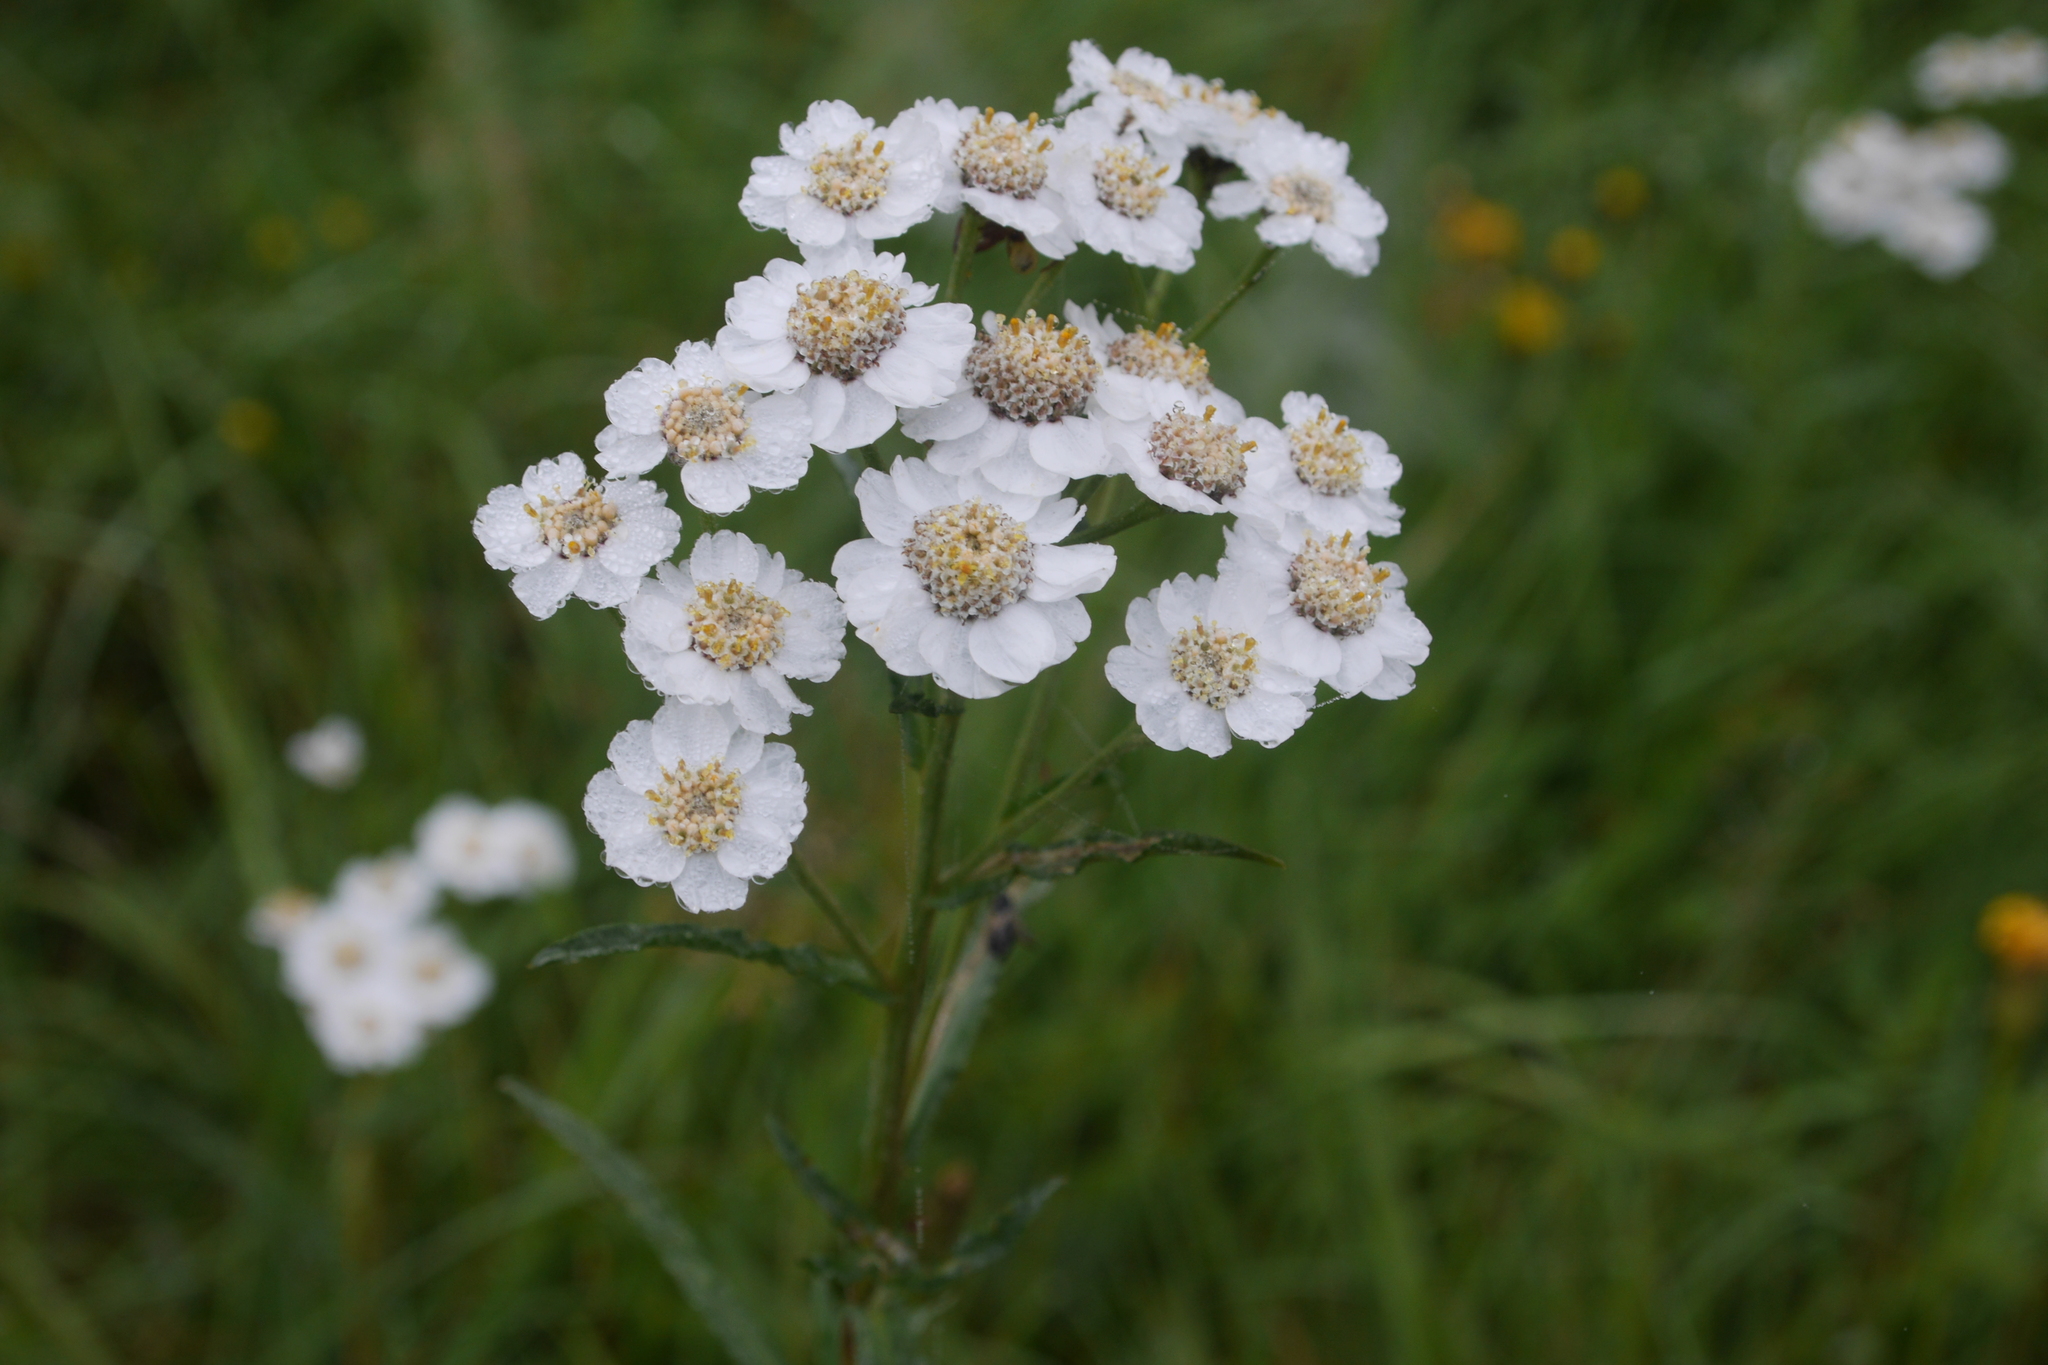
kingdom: Plantae
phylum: Tracheophyta
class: Magnoliopsida
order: Asterales
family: Asteraceae
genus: Achillea
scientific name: Achillea ptarmica
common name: Sneezeweed
